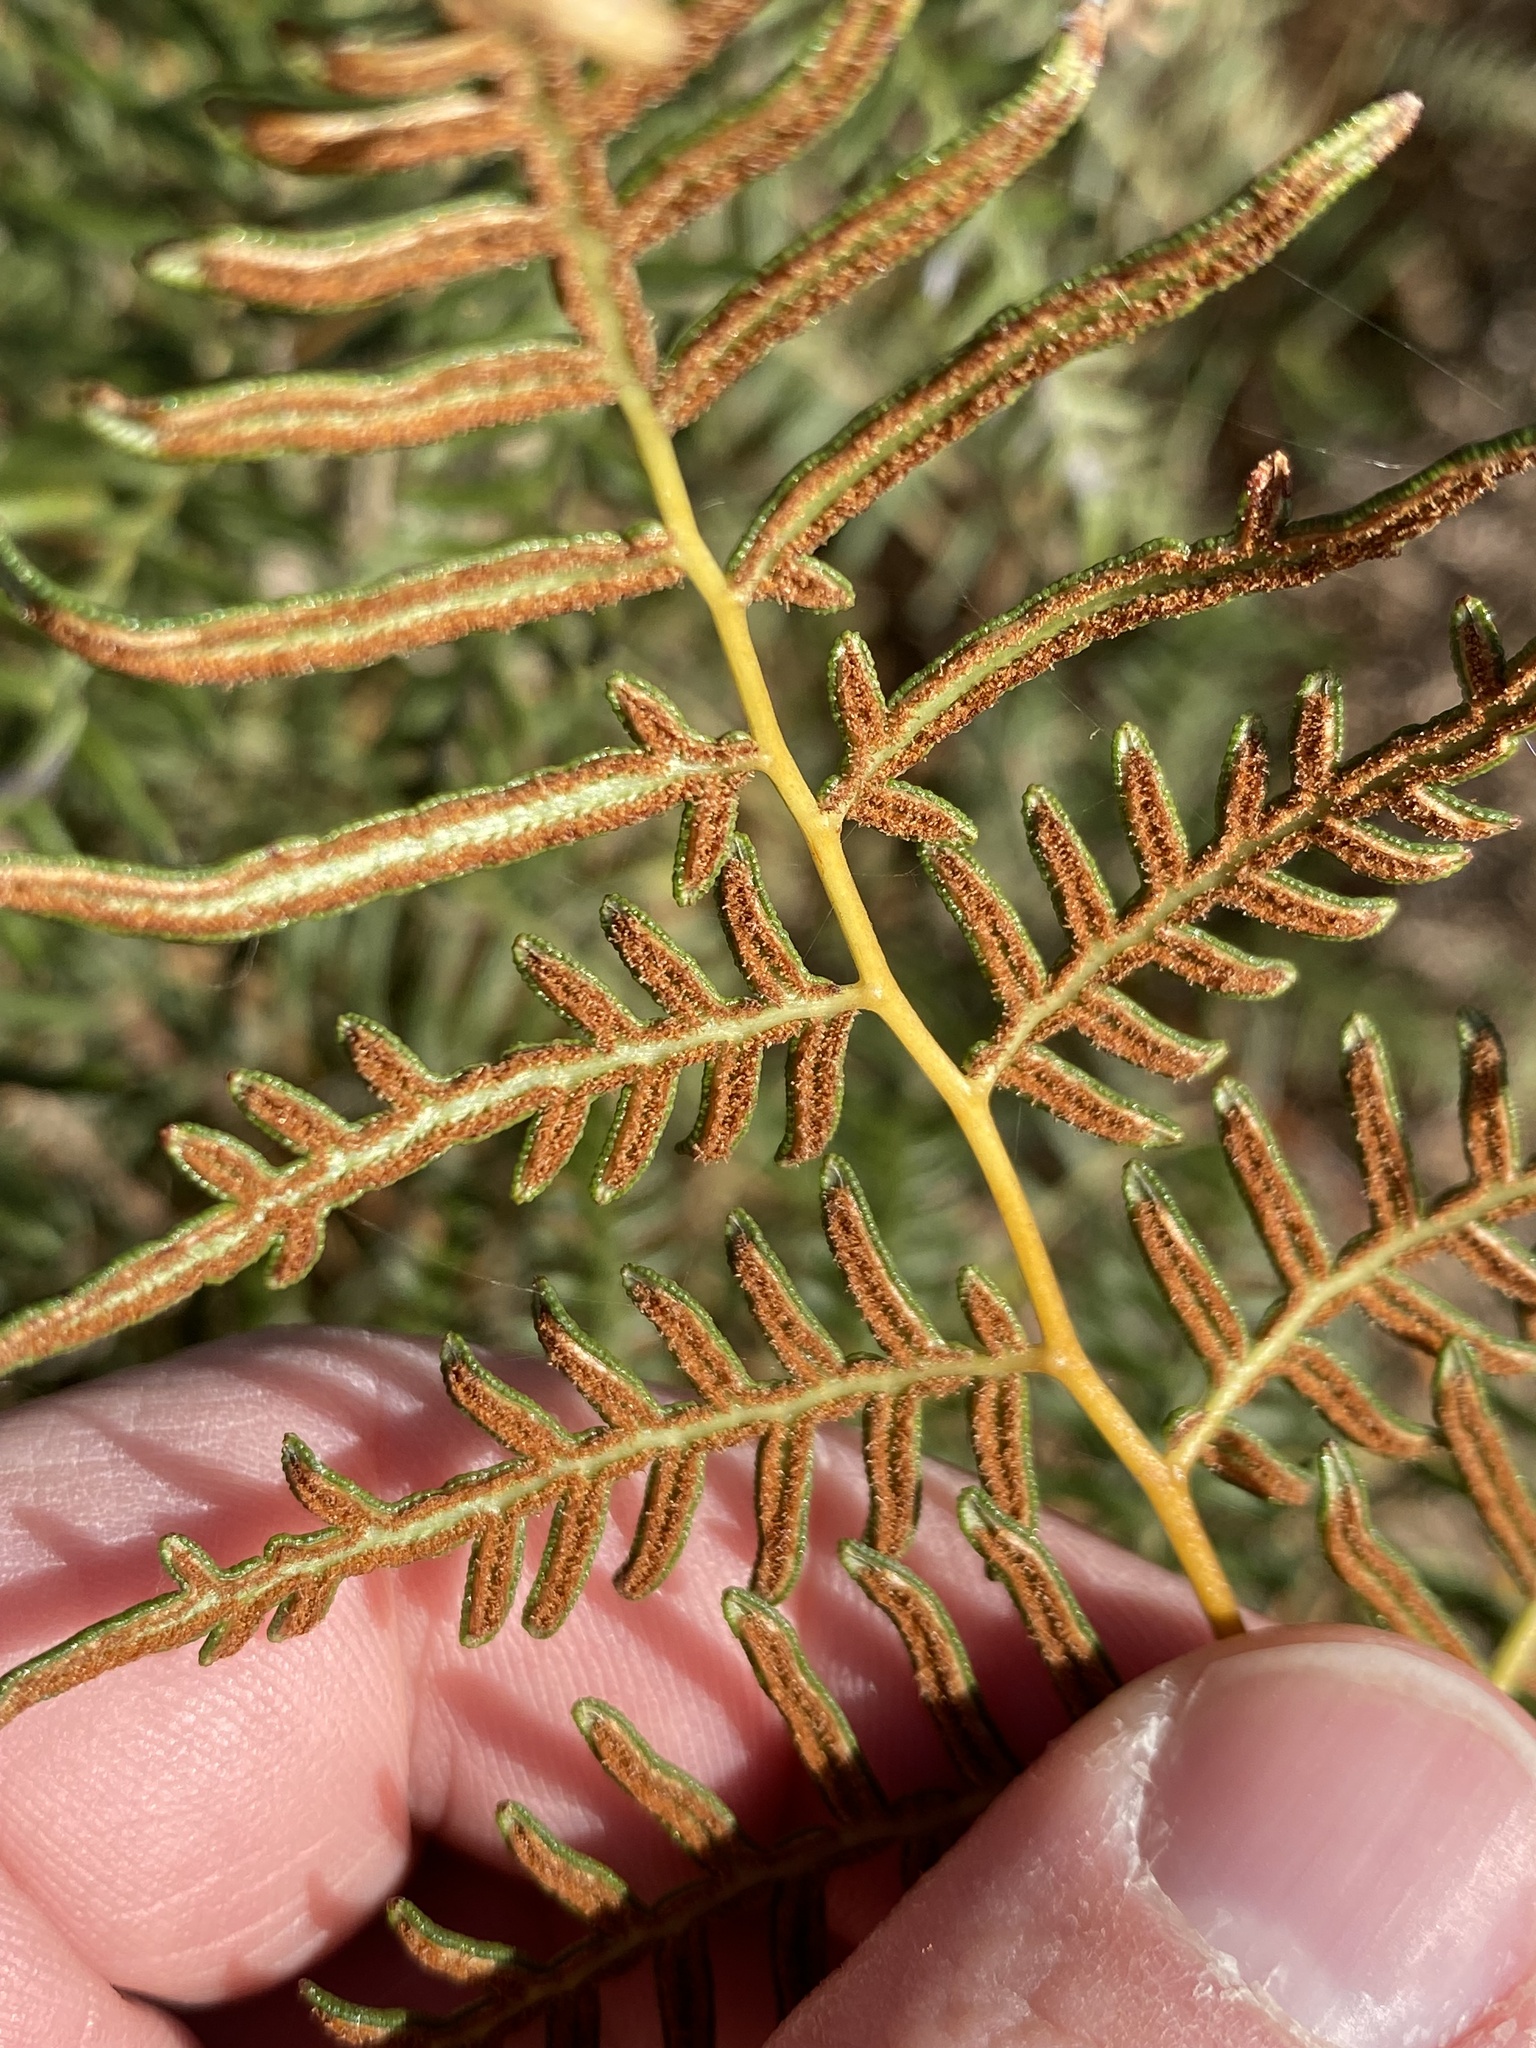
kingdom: Plantae
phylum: Tracheophyta
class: Polypodiopsida
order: Polypodiales
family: Dennstaedtiaceae
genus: Pteridium
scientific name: Pteridium esculentum
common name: Bracken fern
